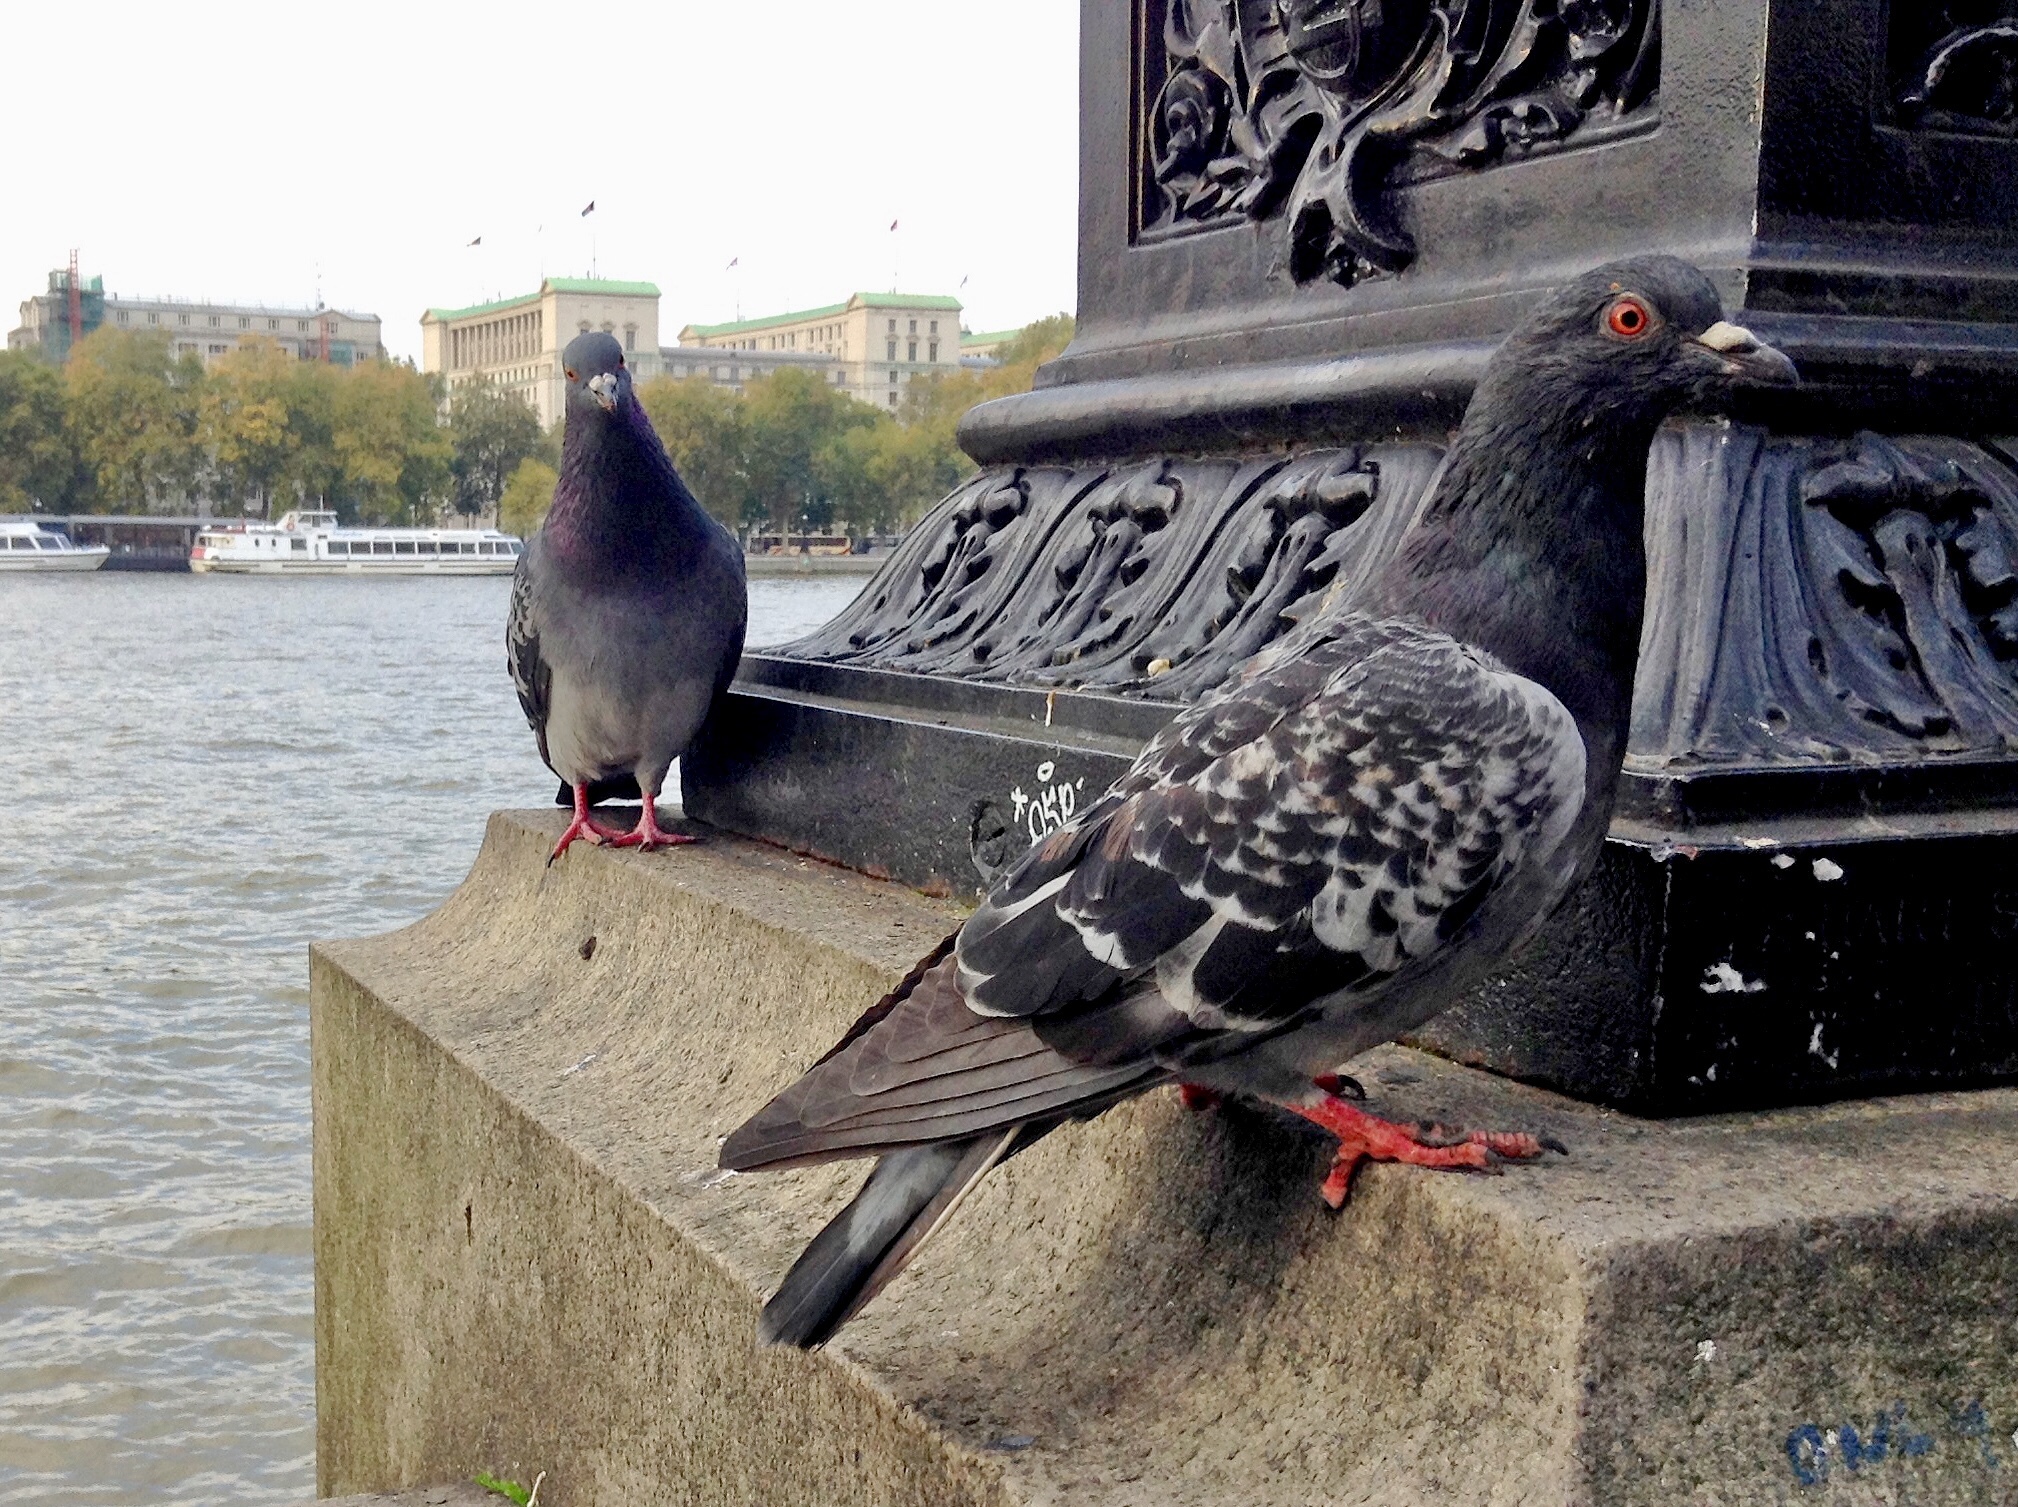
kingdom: Animalia
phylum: Chordata
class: Aves
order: Columbiformes
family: Columbidae
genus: Columba
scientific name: Columba livia
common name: Rock pigeon
